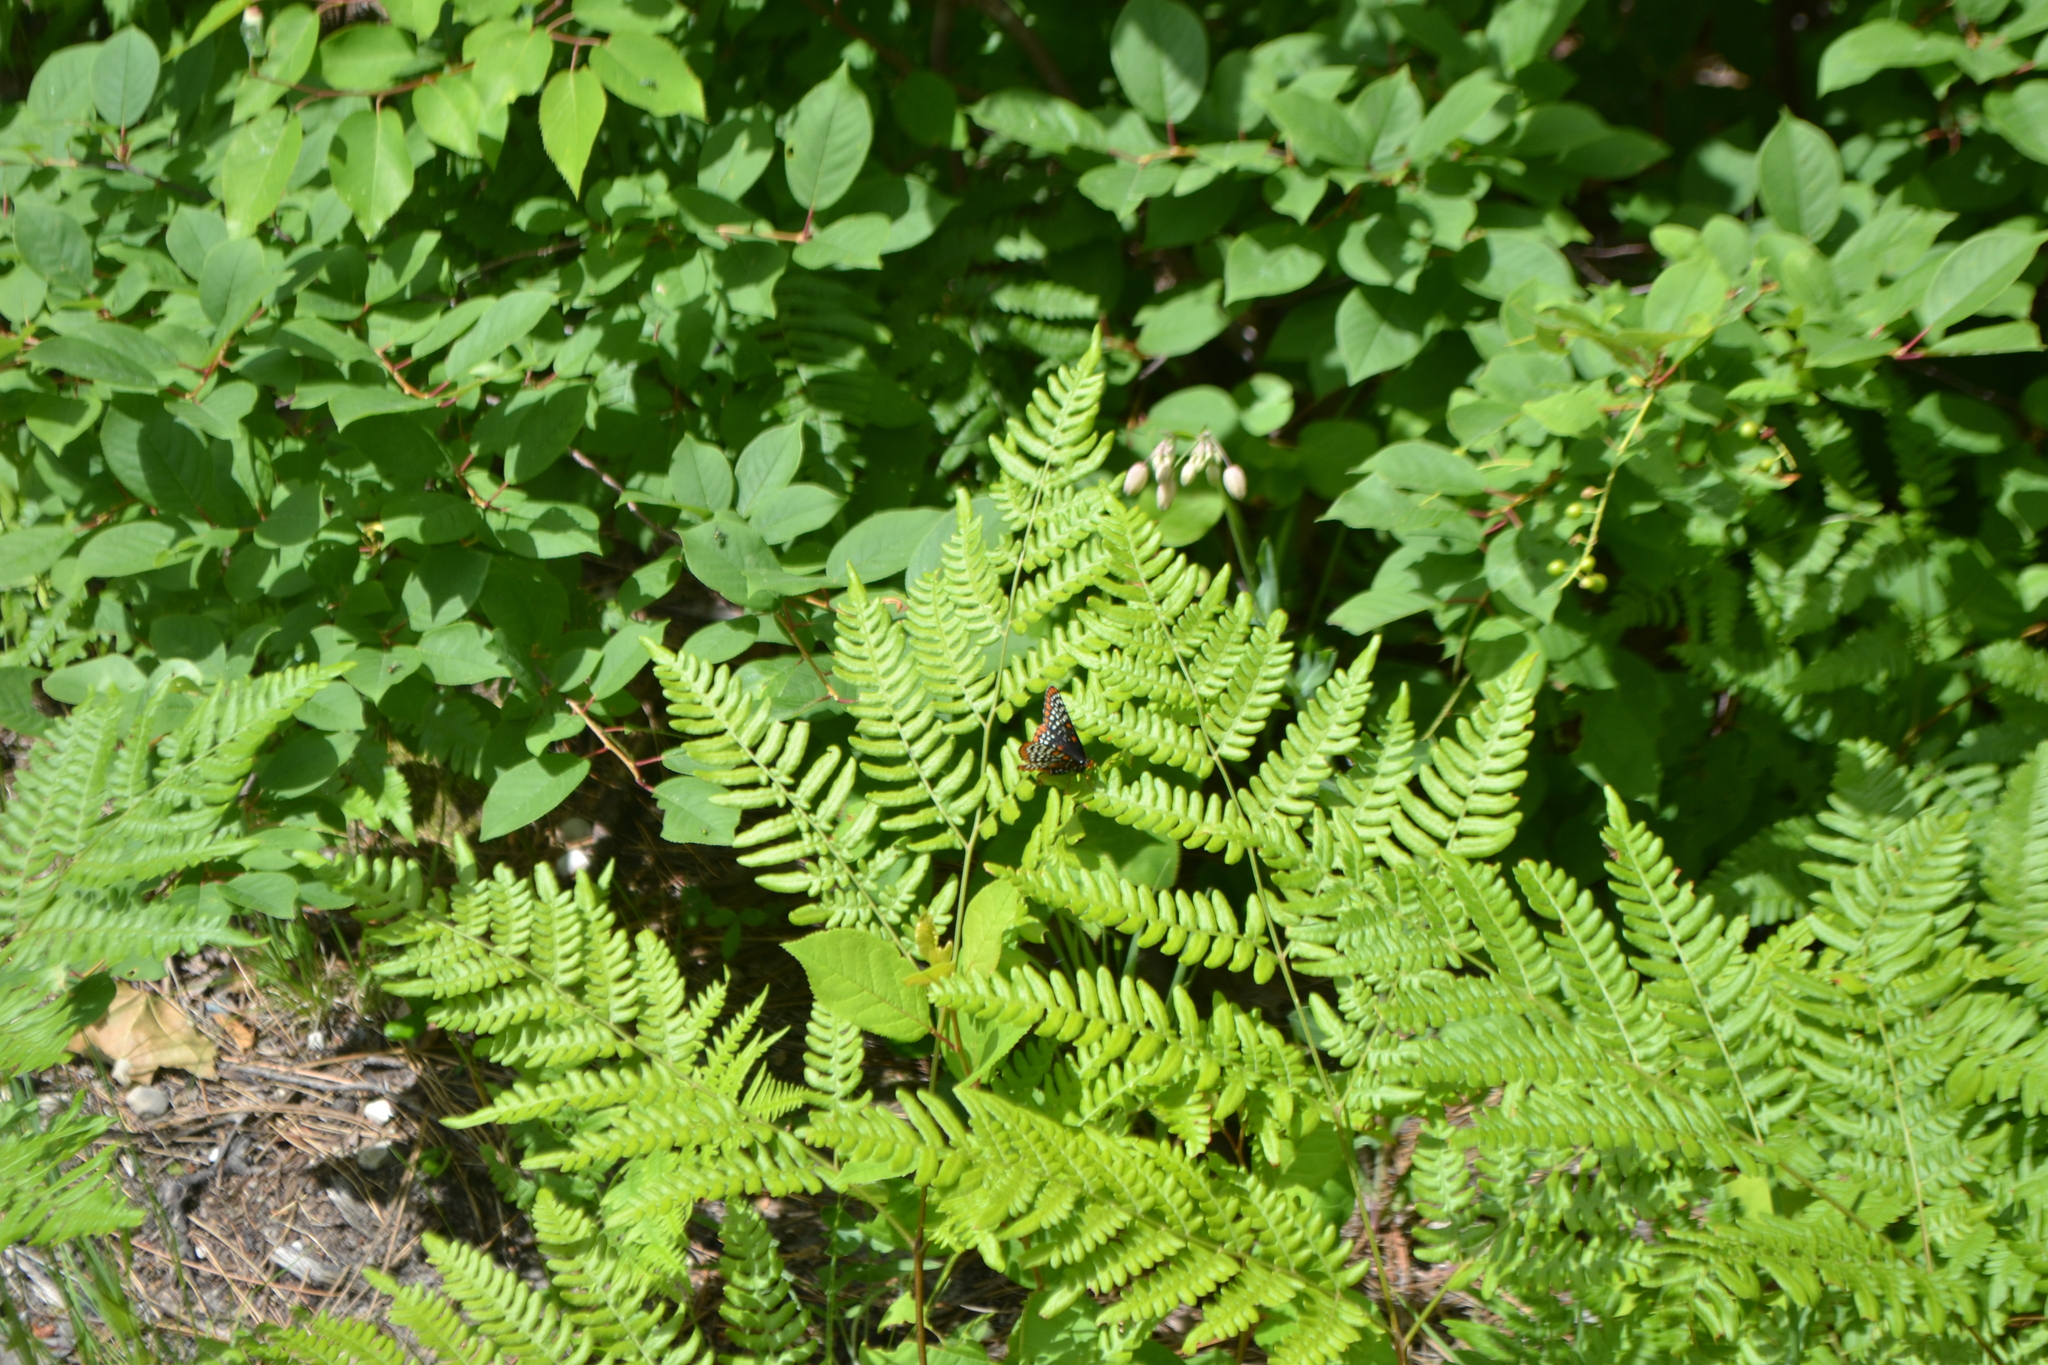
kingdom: Animalia
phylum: Arthropoda
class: Insecta
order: Lepidoptera
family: Nymphalidae
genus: Euphydryas
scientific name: Euphydryas phaeton
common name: Baltimore checkerspot
